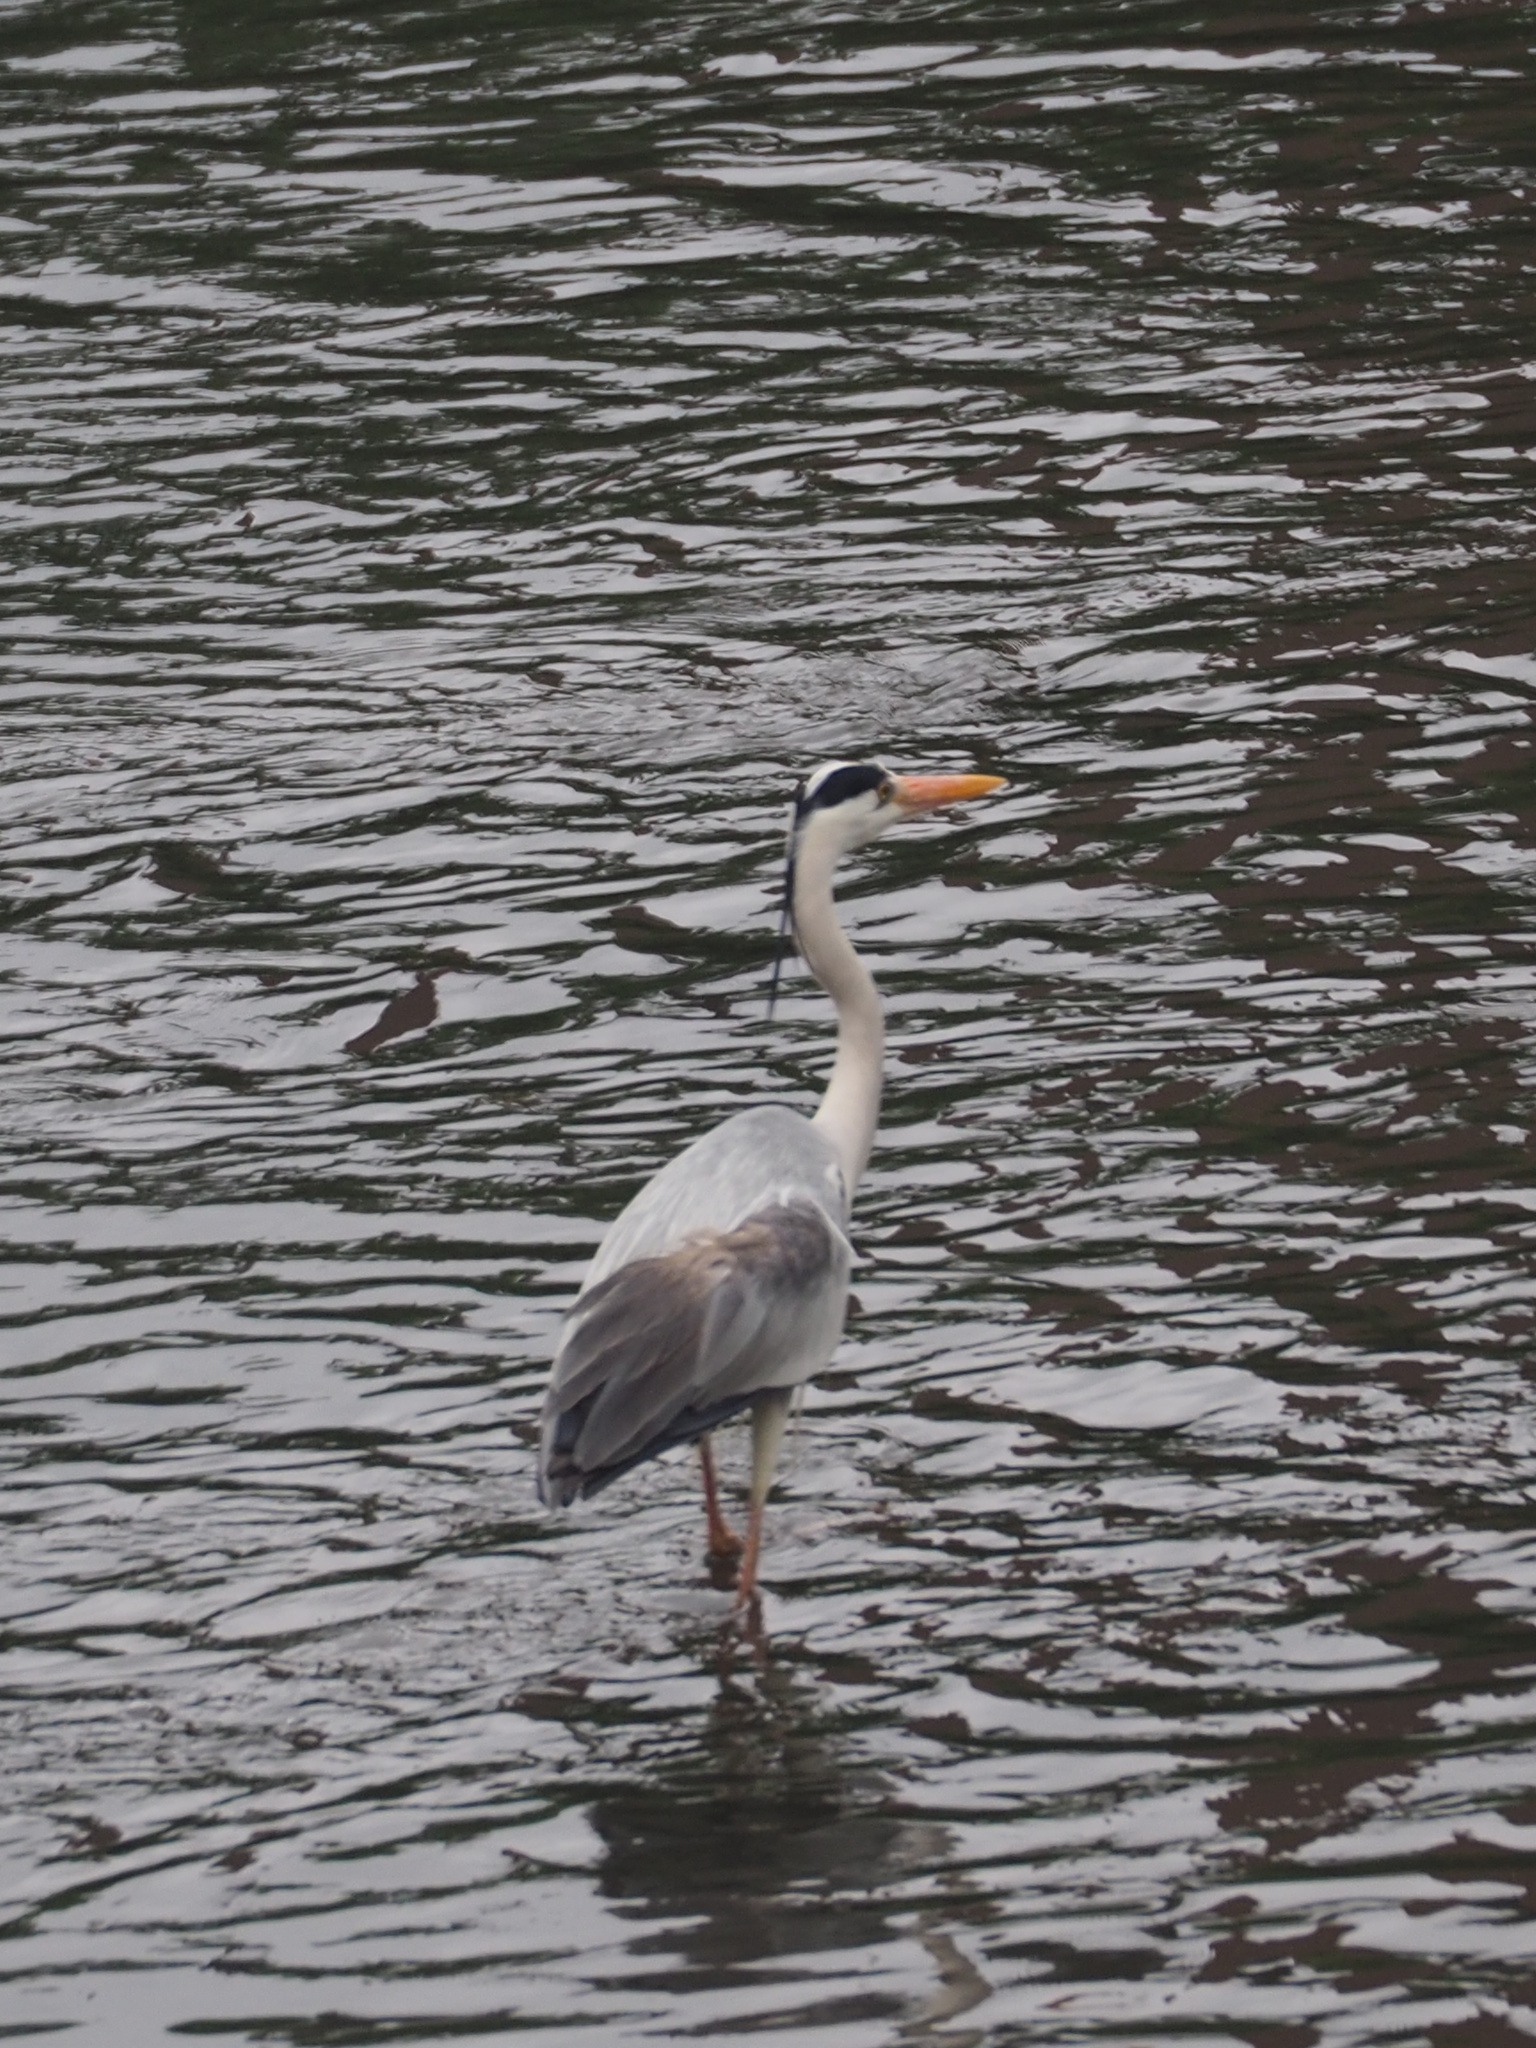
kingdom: Animalia
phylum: Chordata
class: Aves
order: Pelecaniformes
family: Ardeidae
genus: Ardea
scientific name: Ardea cinerea
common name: Grey heron
